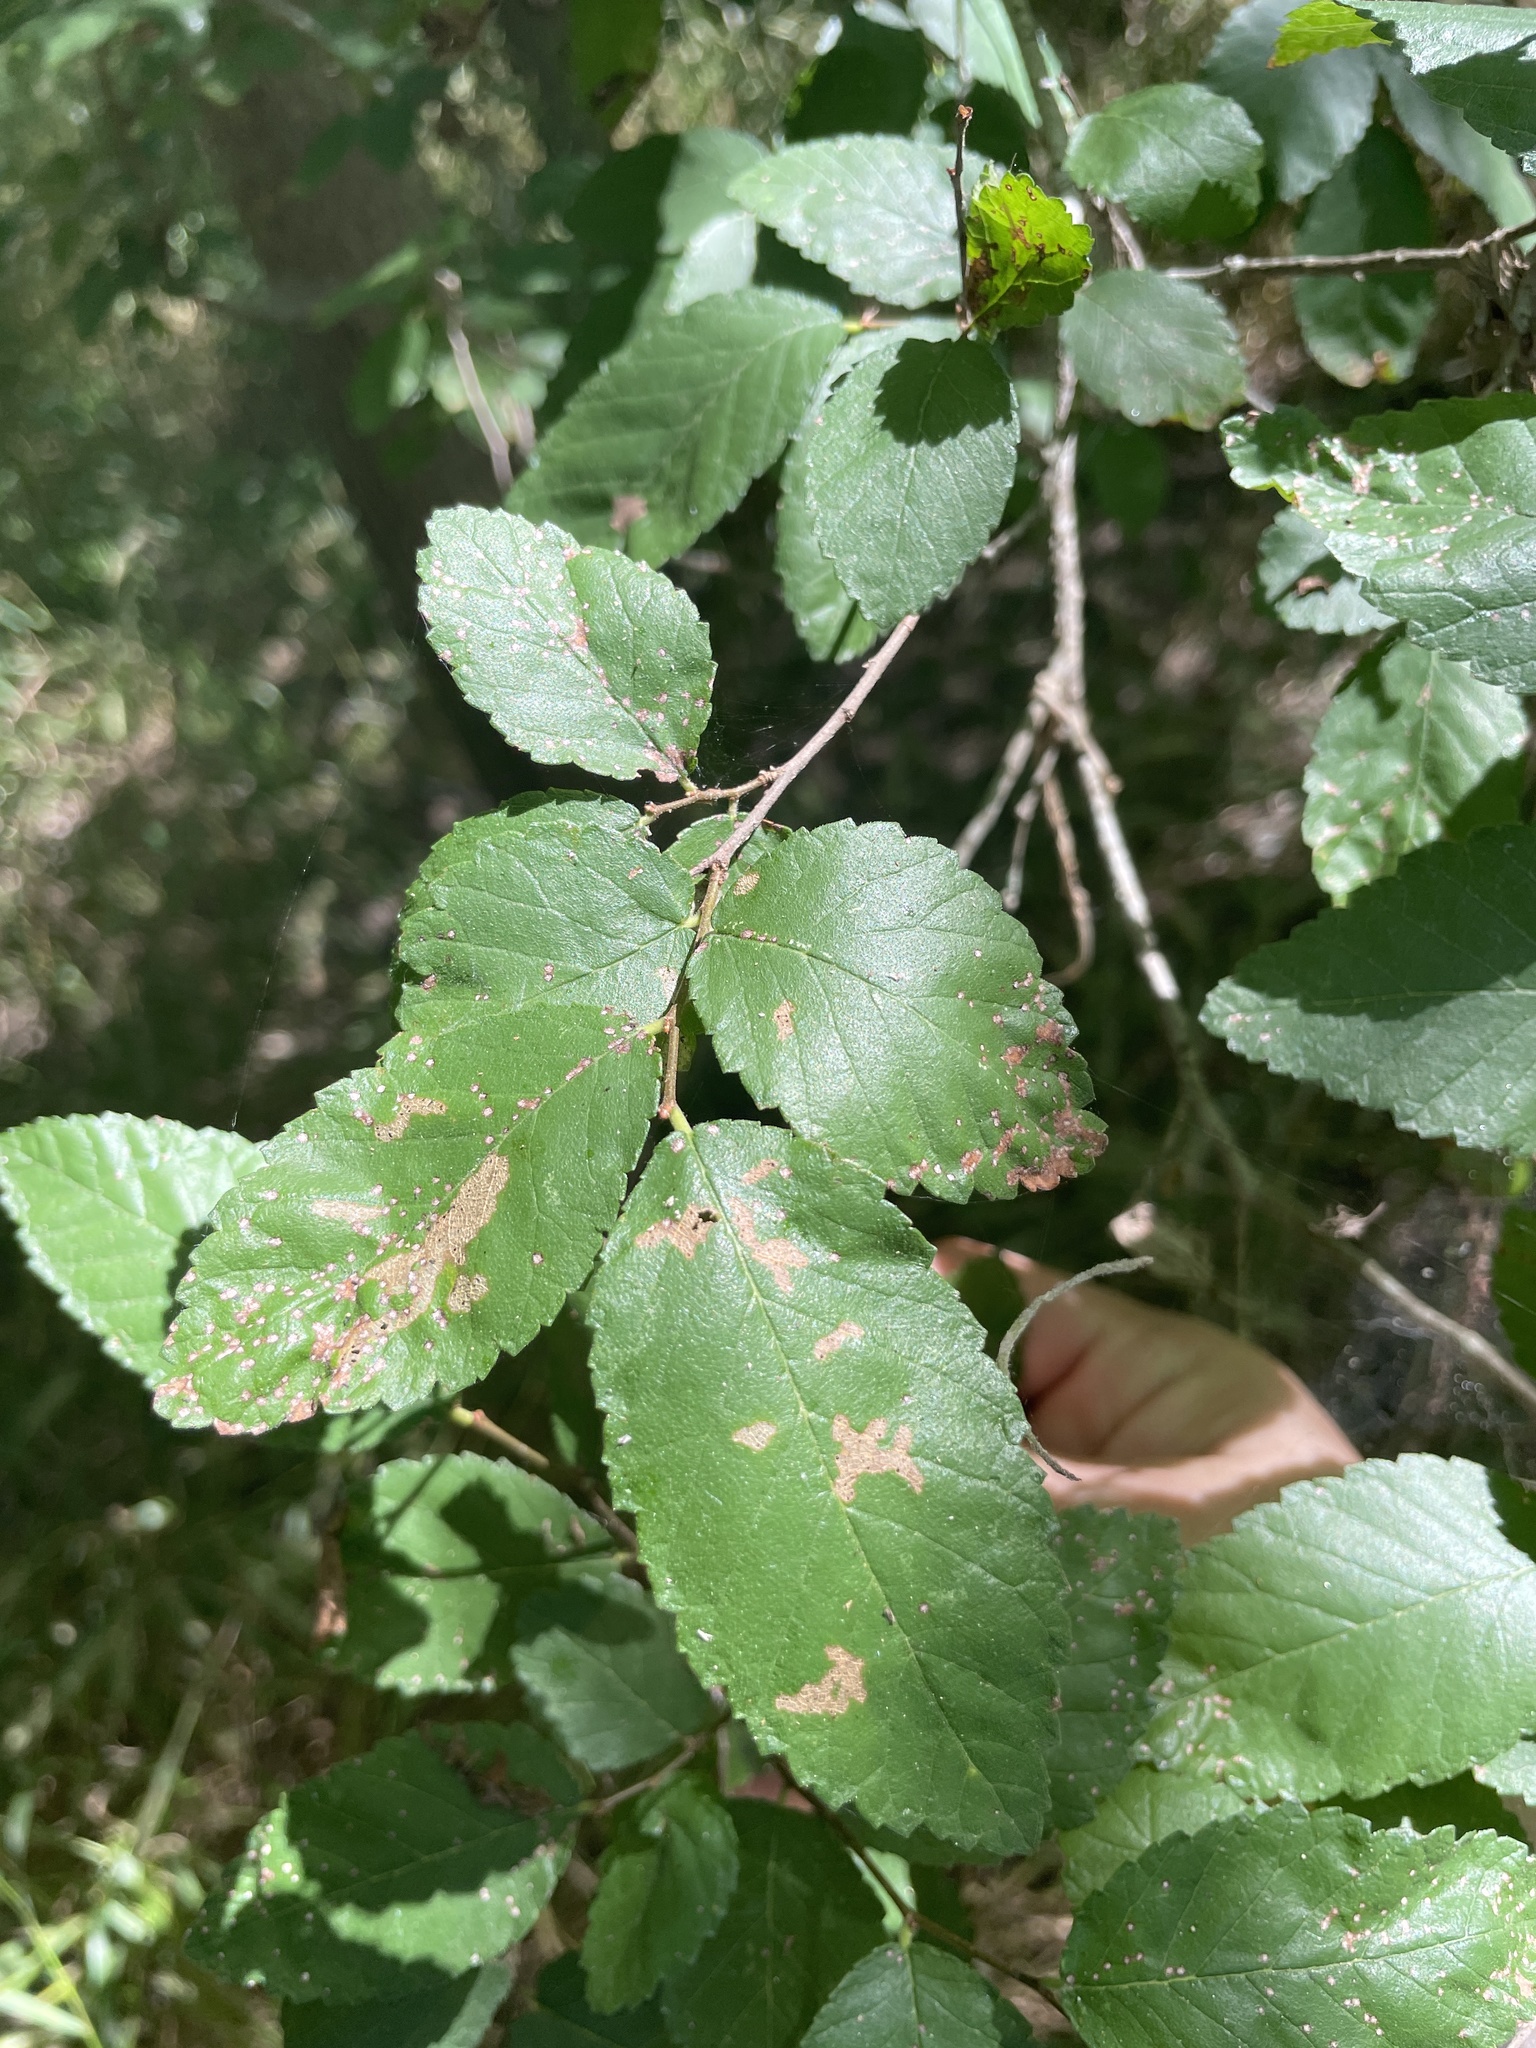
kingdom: Plantae
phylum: Tracheophyta
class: Magnoliopsida
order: Rosales
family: Ulmaceae
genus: Ulmus
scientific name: Ulmus crassifolia
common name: Basket elm
